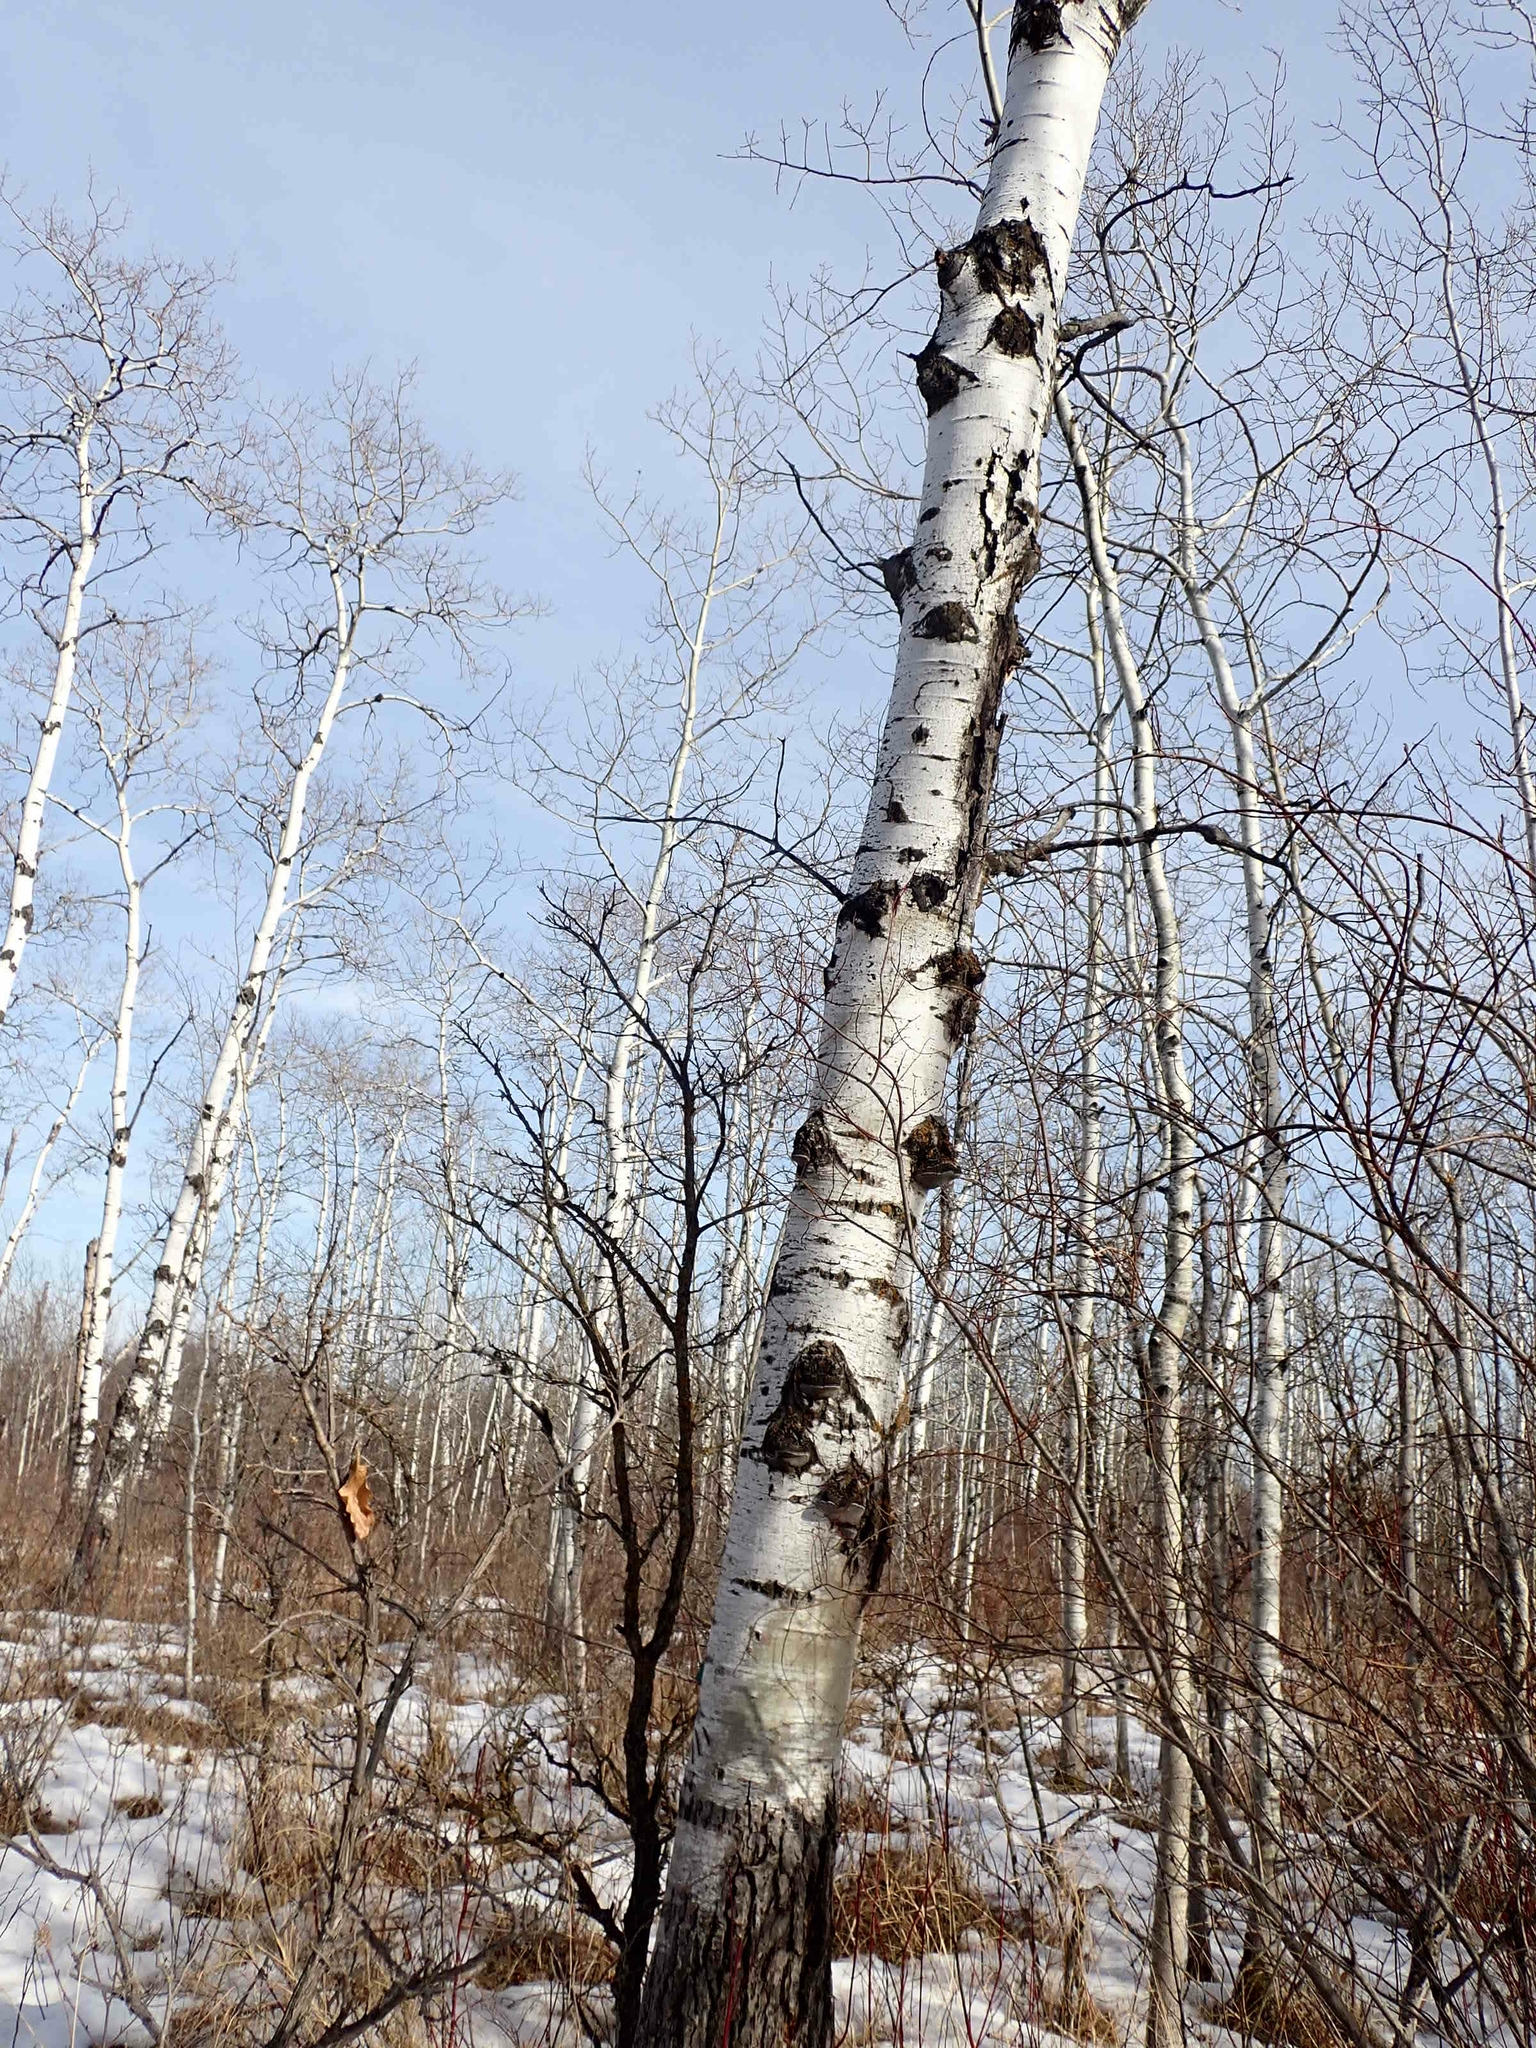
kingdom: Plantae
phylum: Tracheophyta
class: Magnoliopsida
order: Malpighiales
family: Salicaceae
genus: Populus
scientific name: Populus tremuloides
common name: Quaking aspen
